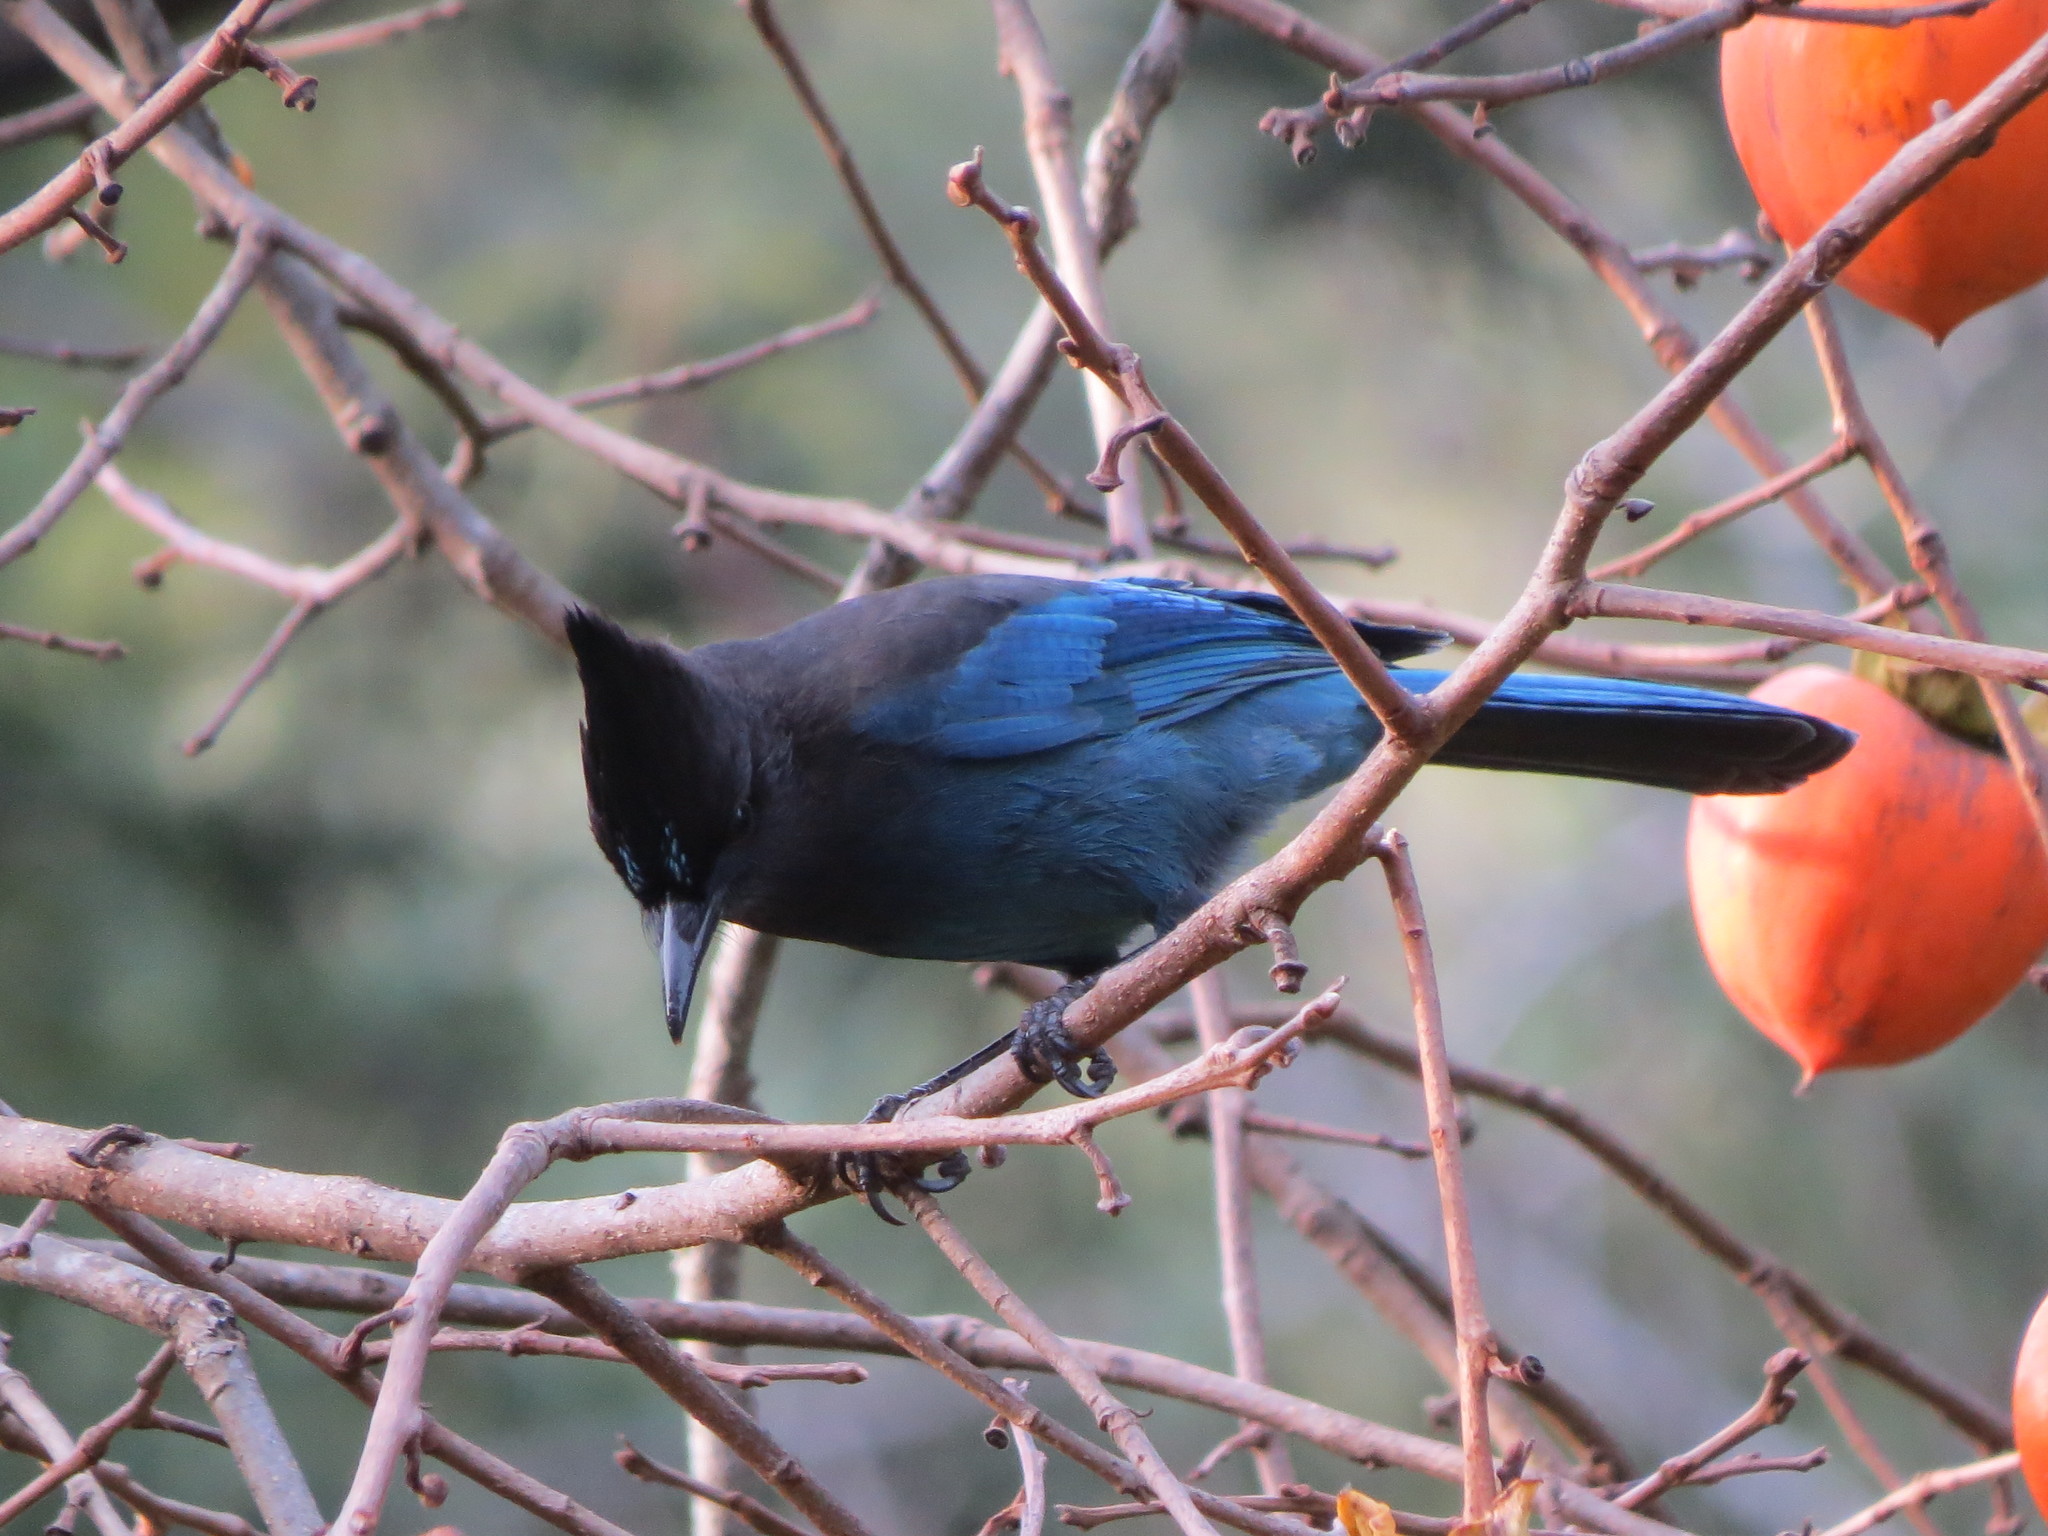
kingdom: Animalia
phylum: Chordata
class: Aves
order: Passeriformes
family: Corvidae
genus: Cyanocitta
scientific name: Cyanocitta stelleri
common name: Steller's jay
